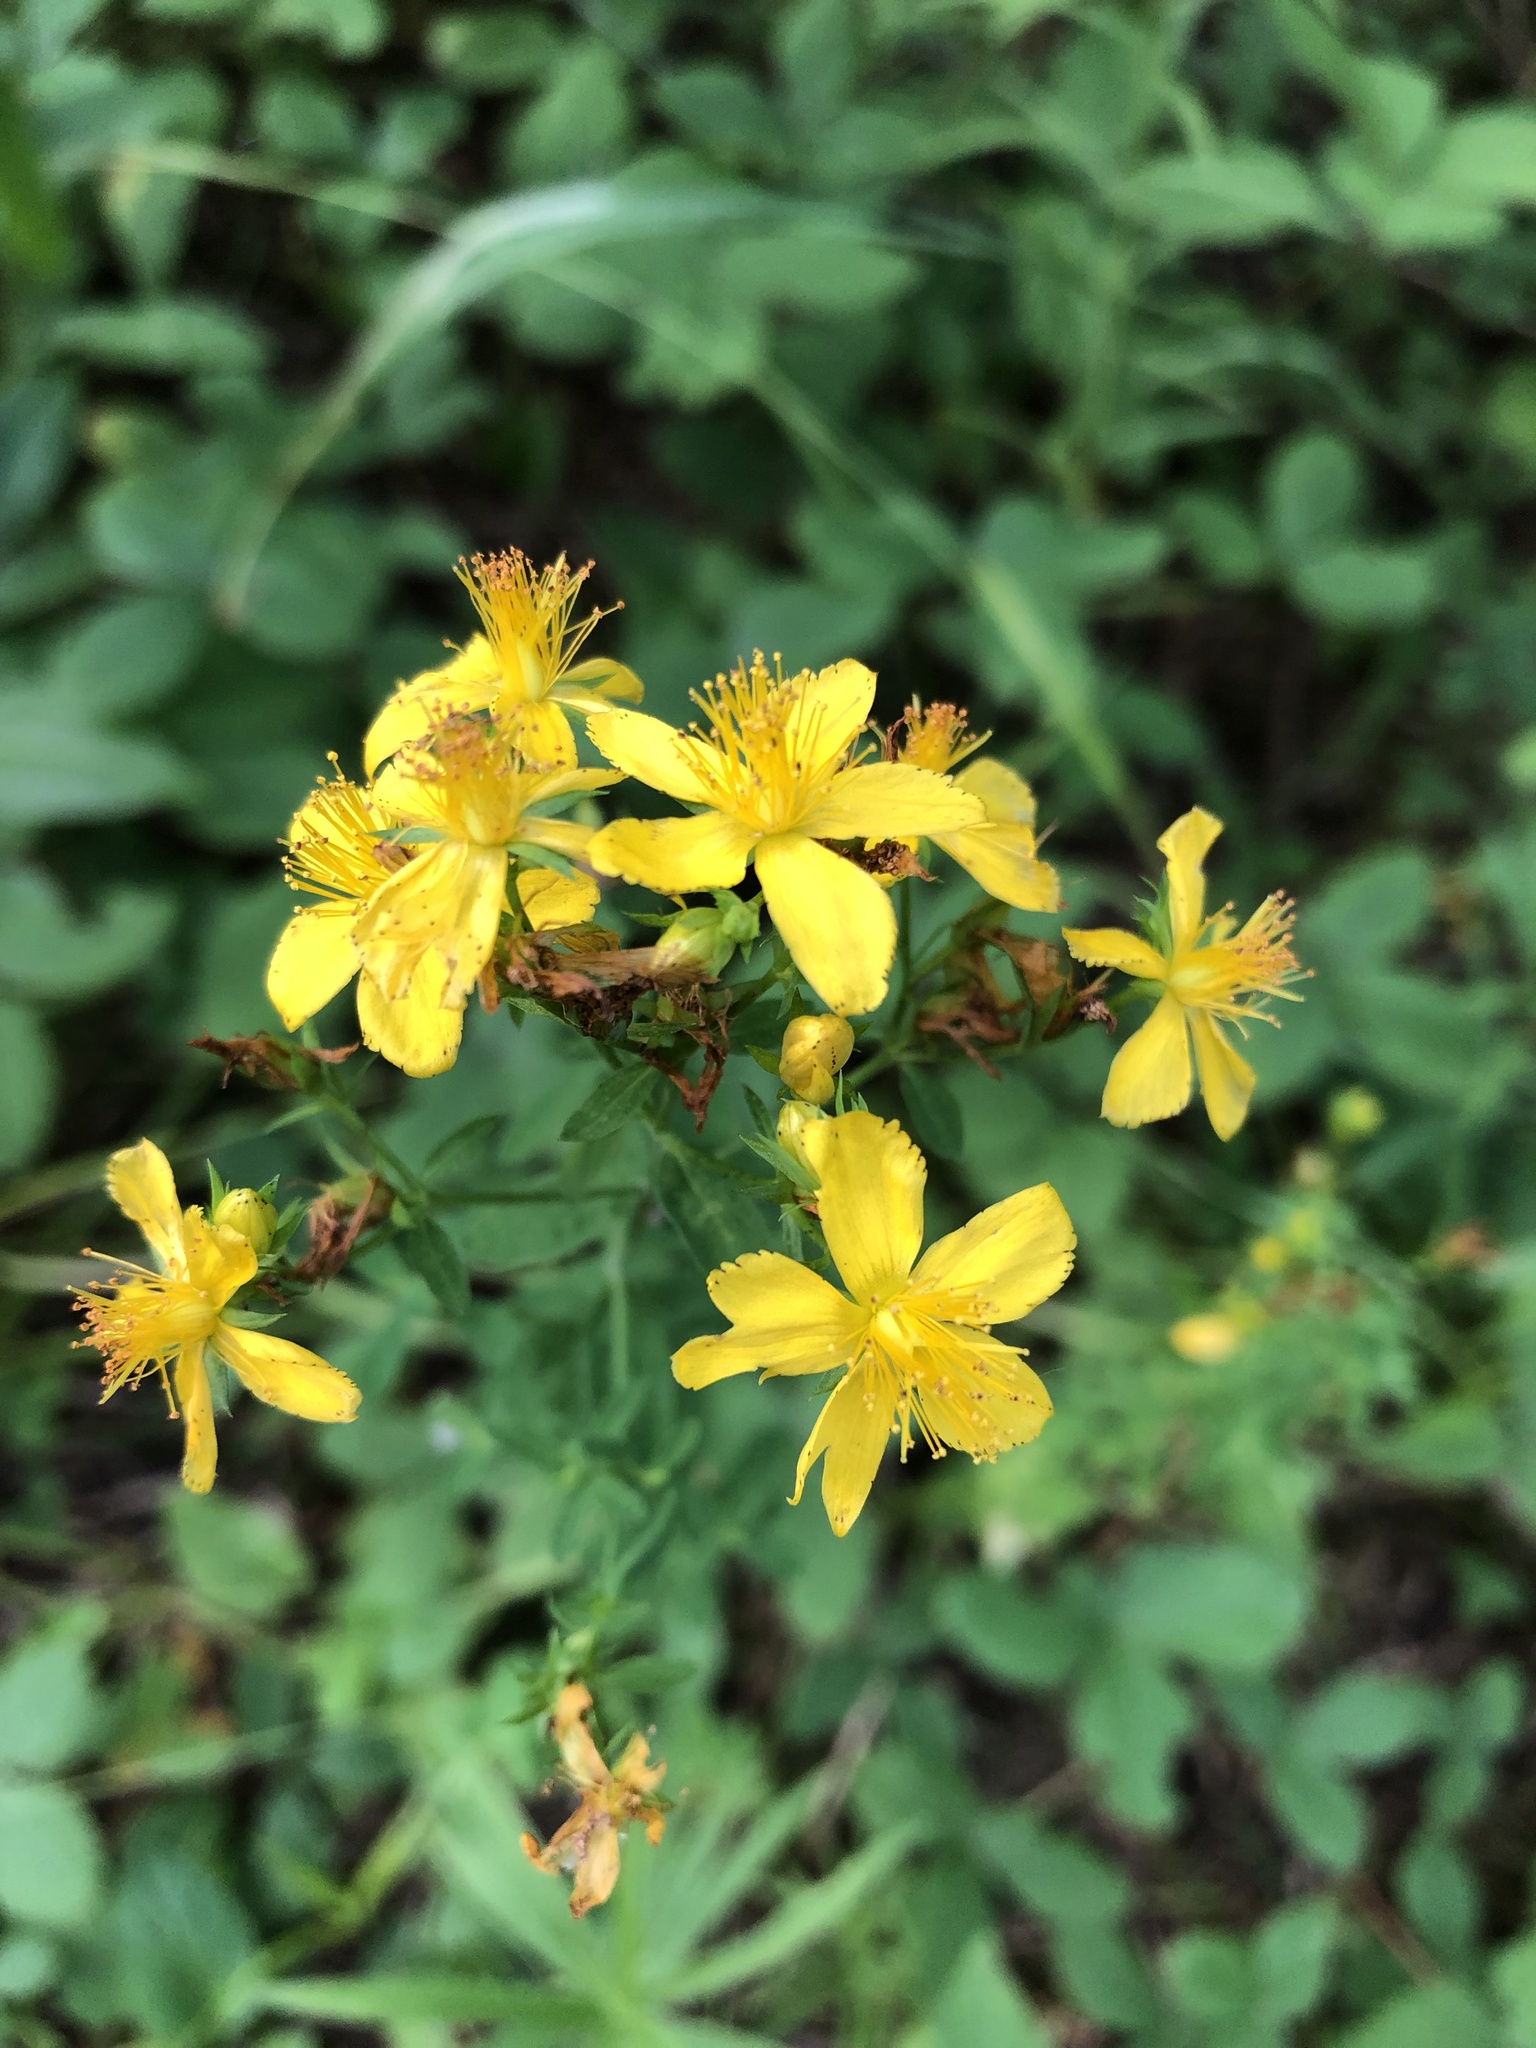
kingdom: Plantae
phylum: Tracheophyta
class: Magnoliopsida
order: Malpighiales
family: Hypericaceae
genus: Hypericum
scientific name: Hypericum perforatum
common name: Common st. johnswort
